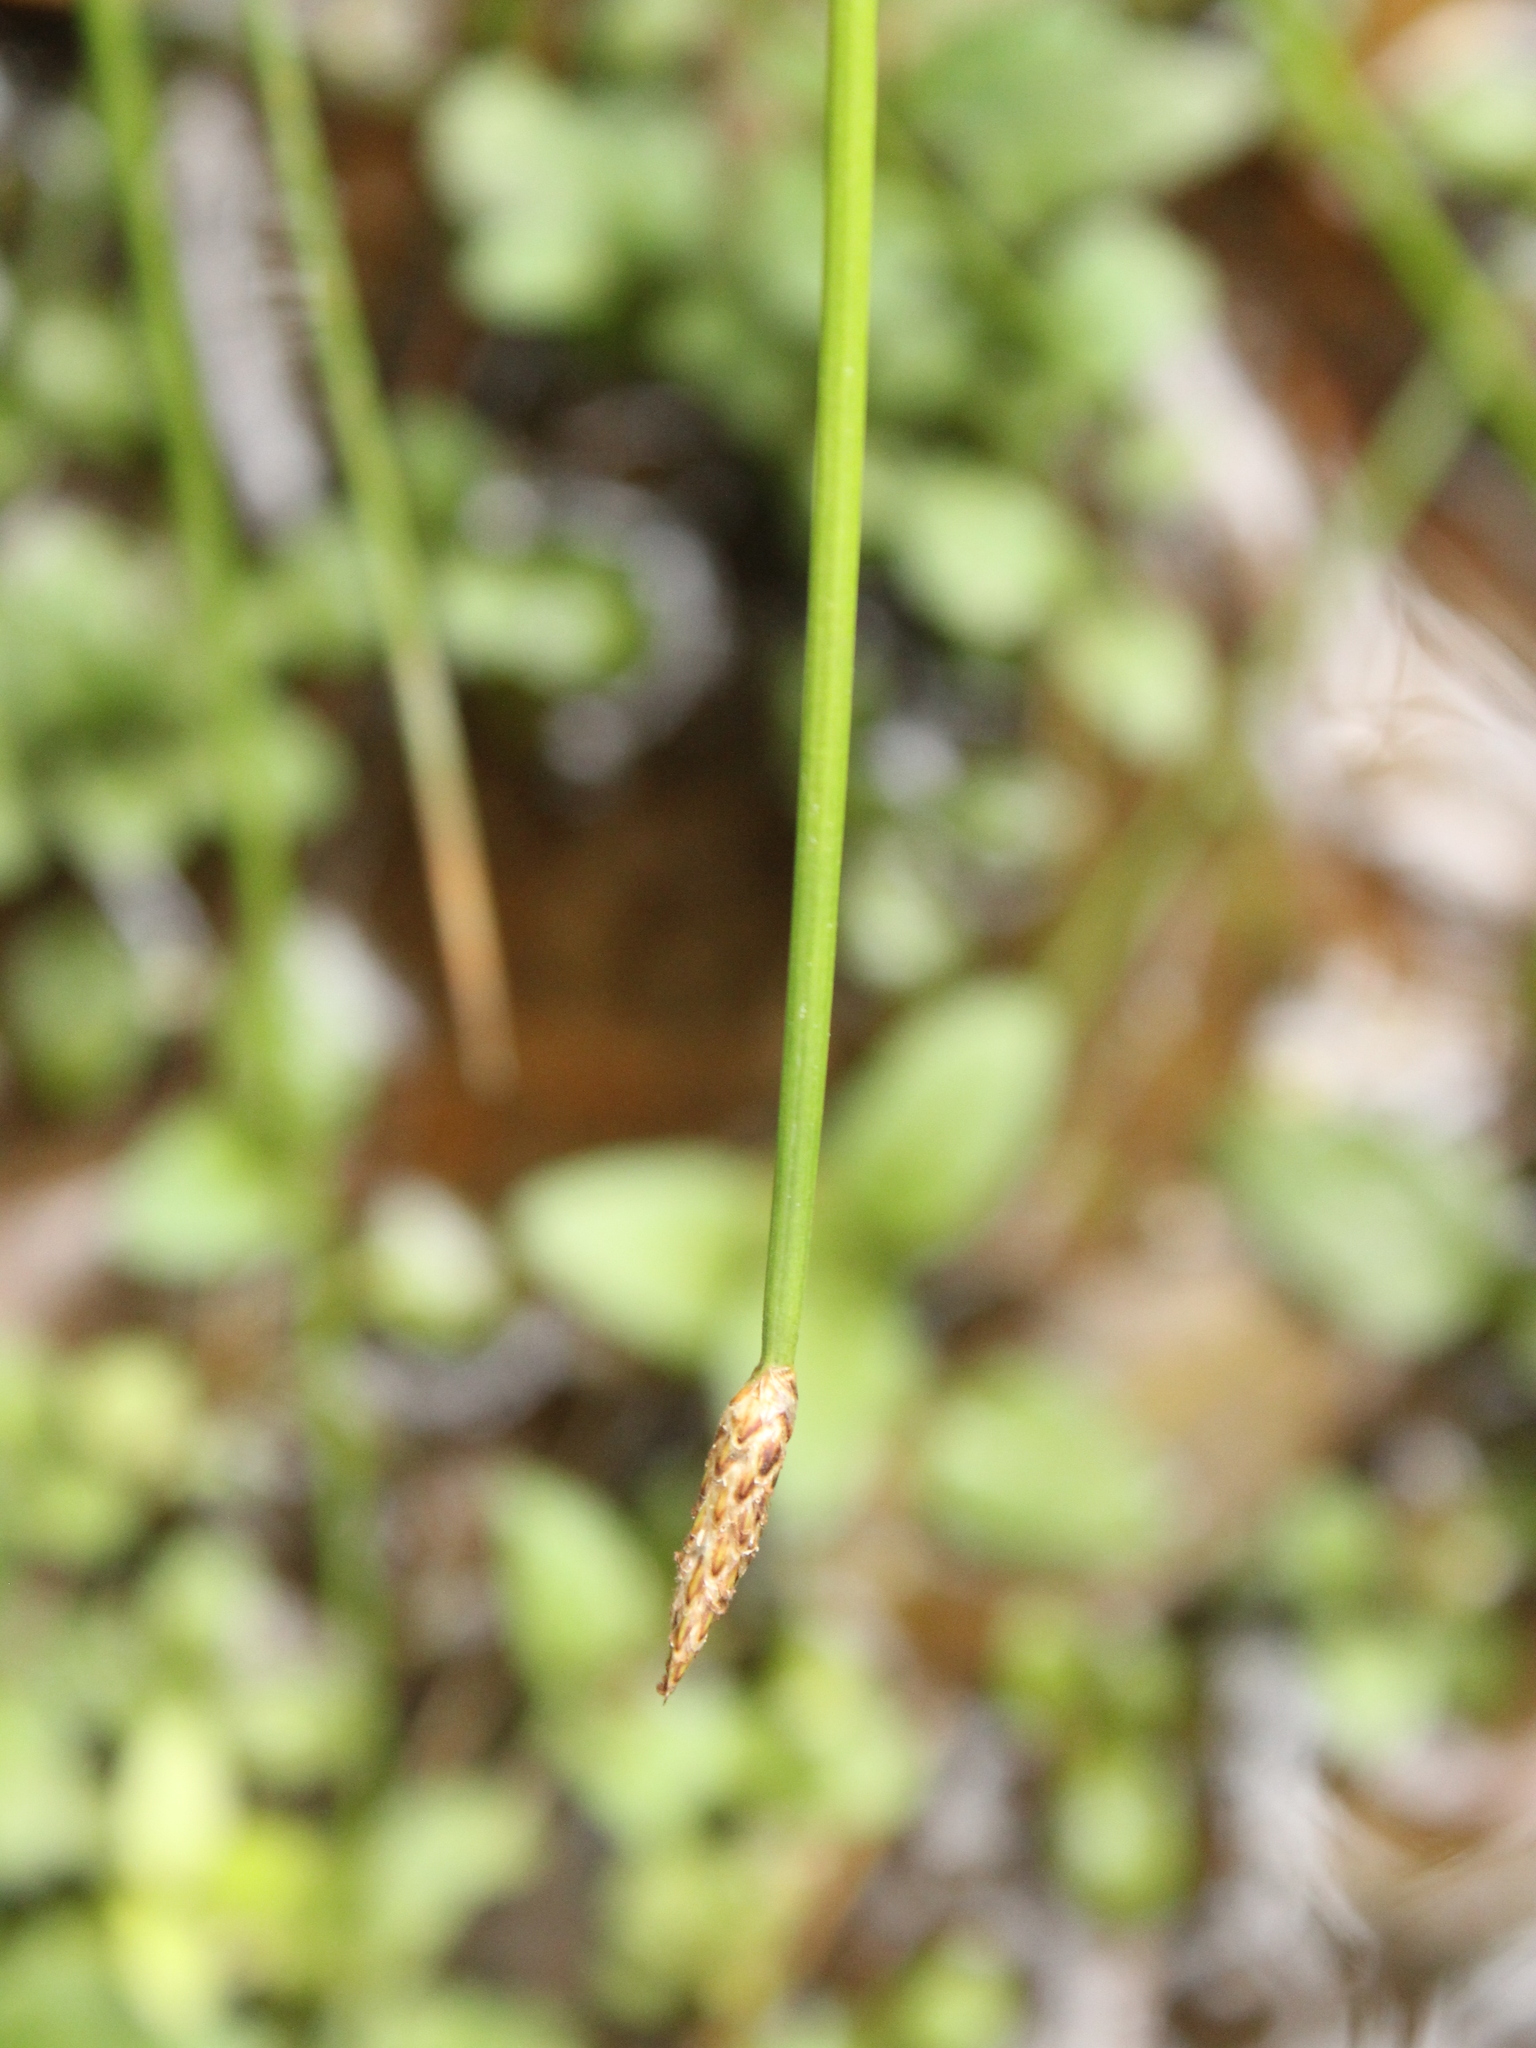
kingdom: Plantae
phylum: Tracheophyta
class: Liliopsida
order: Poales
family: Cyperaceae
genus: Eleocharis
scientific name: Eleocharis acuta
